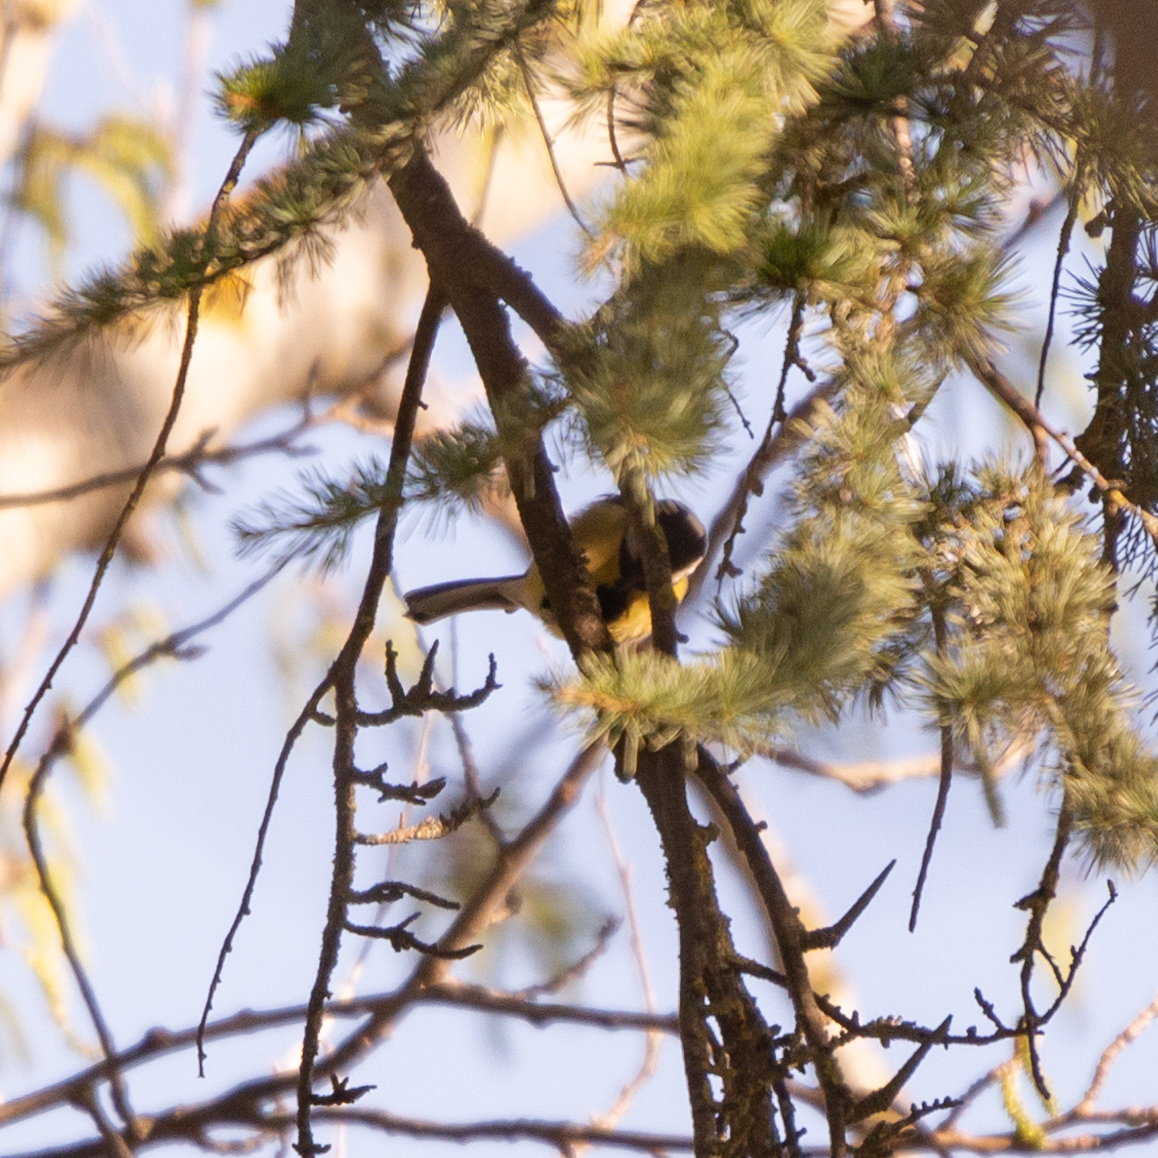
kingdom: Animalia
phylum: Chordata
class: Aves
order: Passeriformes
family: Paridae
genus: Parus
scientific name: Parus major
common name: Great tit
